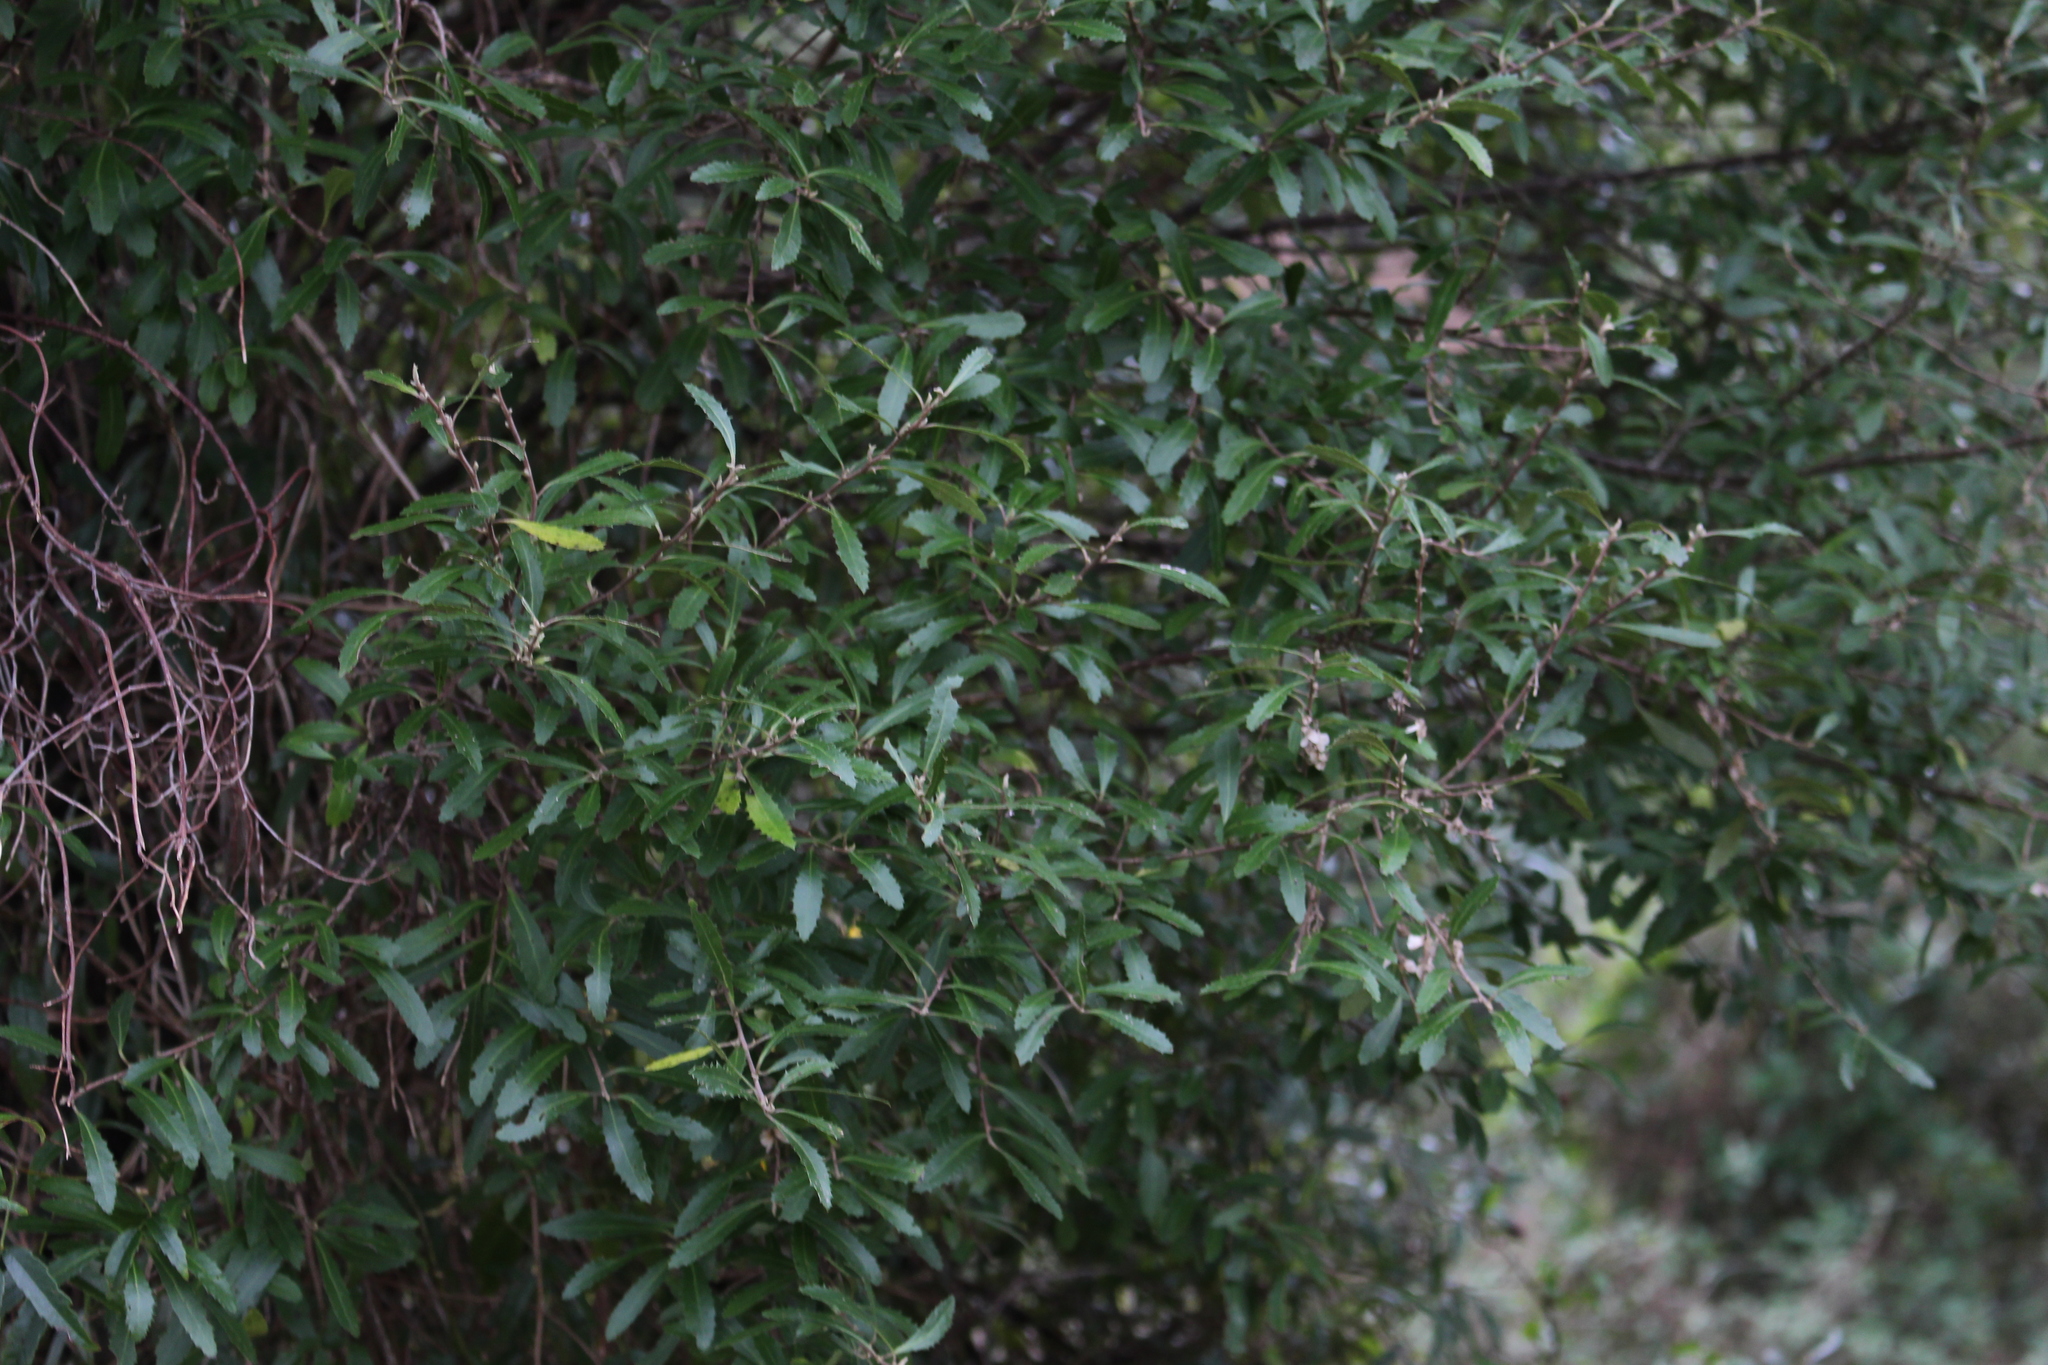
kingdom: Plantae
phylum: Tracheophyta
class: Magnoliopsida
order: Malvales
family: Malvaceae
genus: Hoheria
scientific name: Hoheria angustifolia
